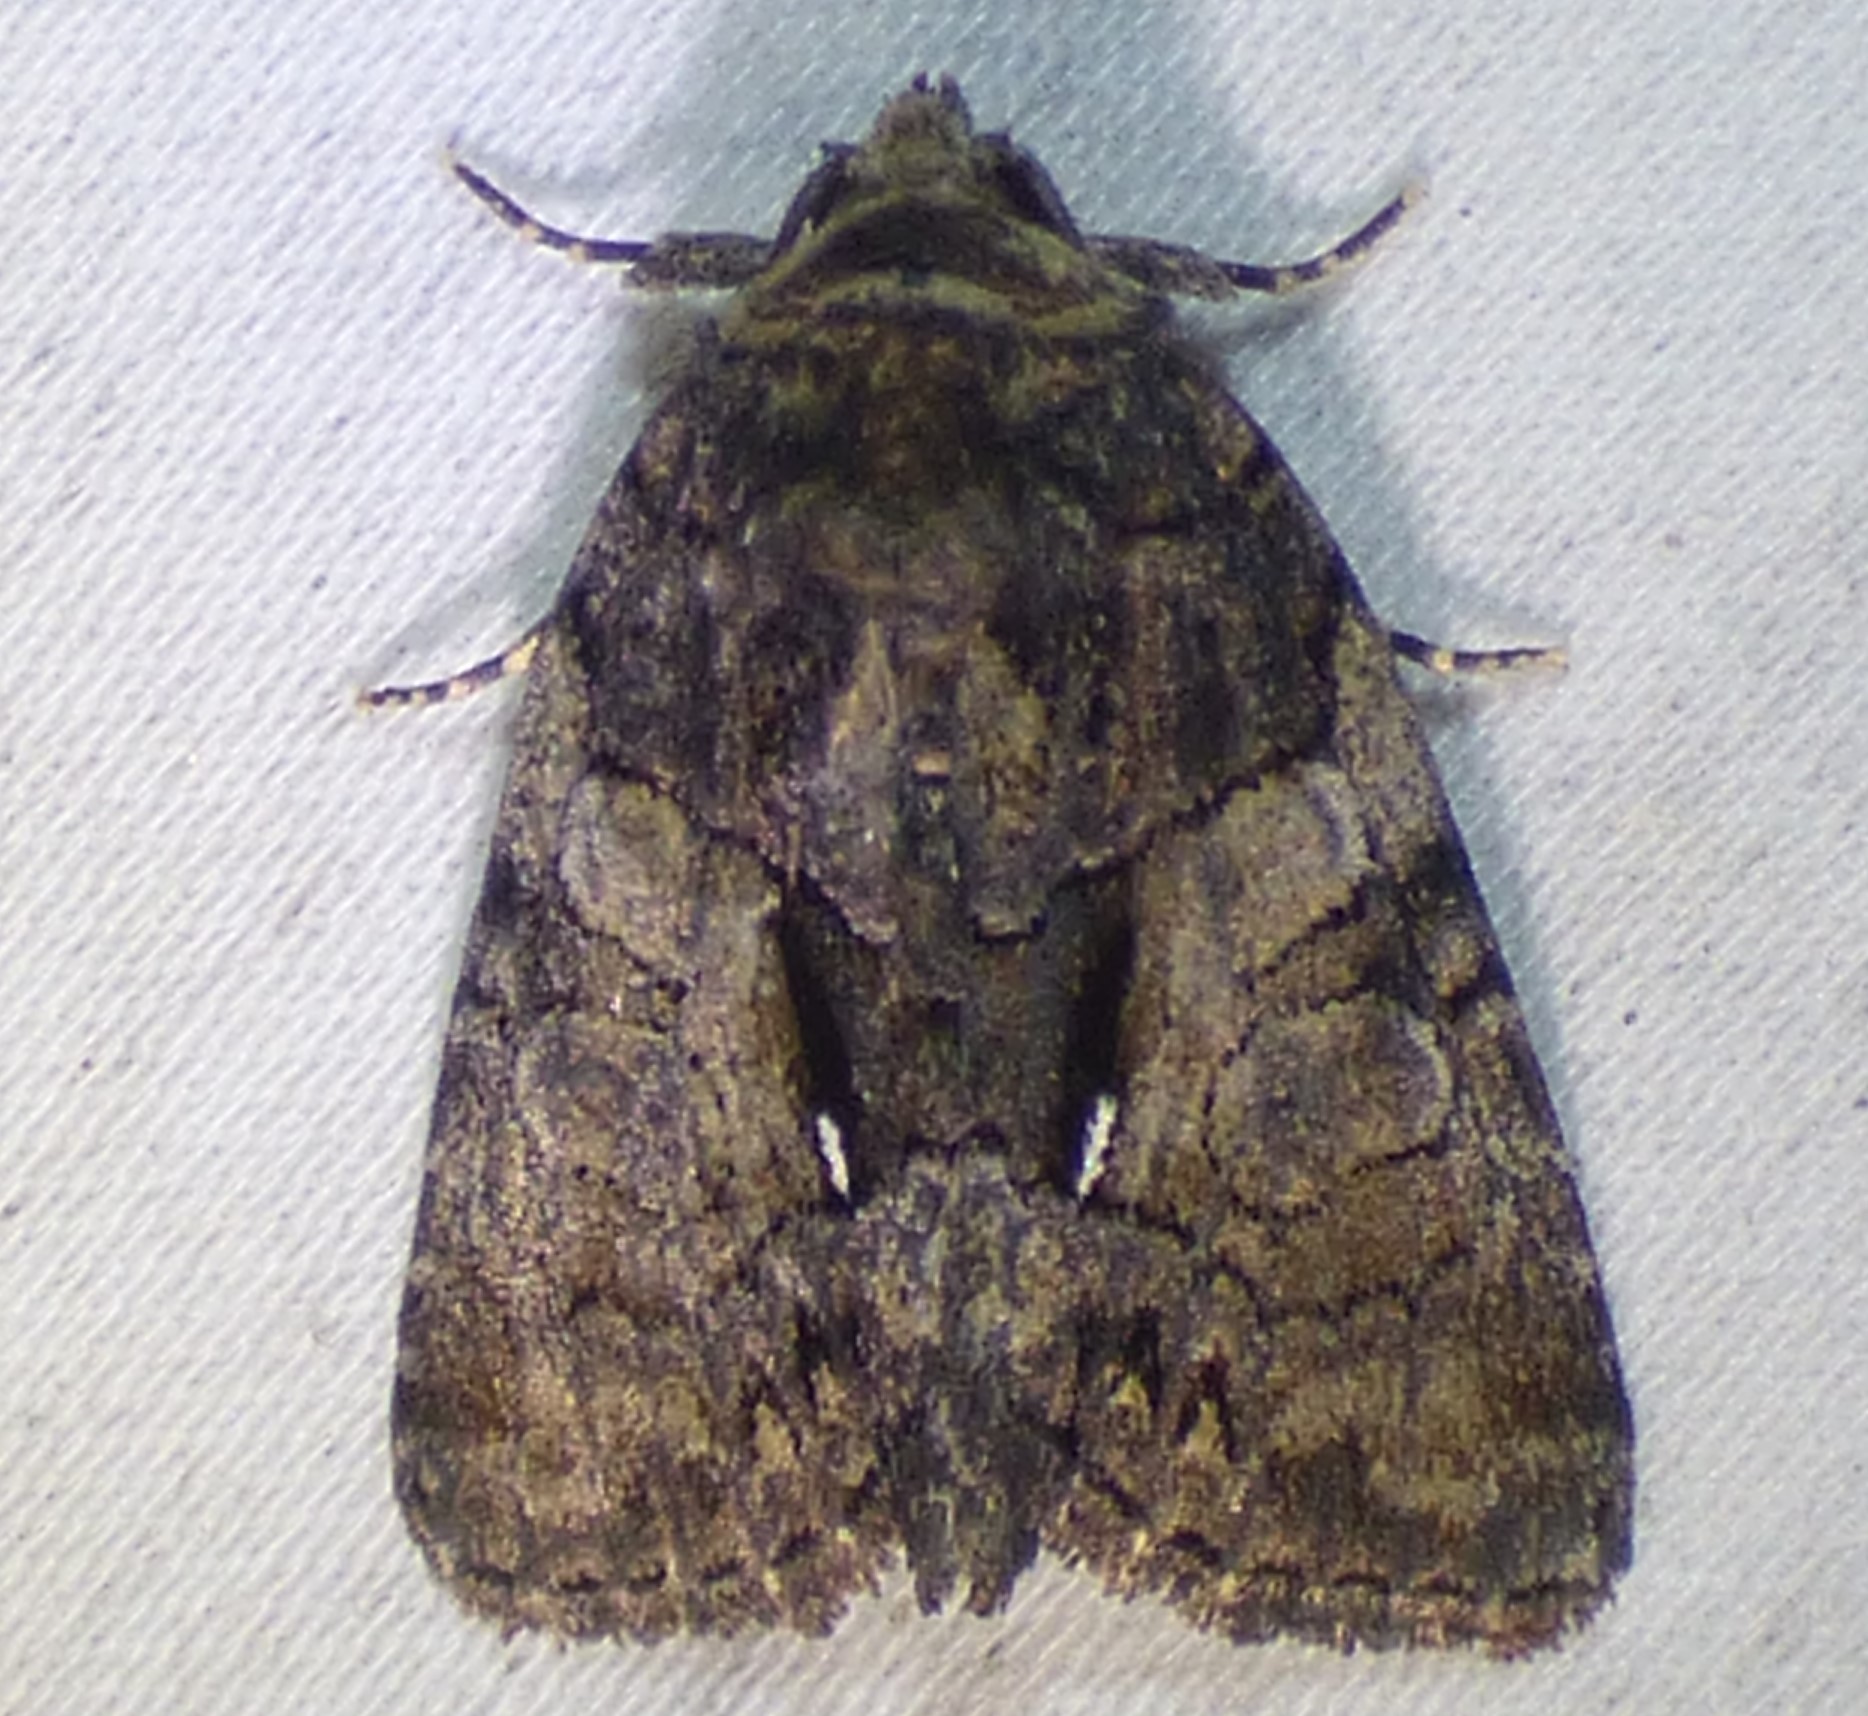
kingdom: Animalia
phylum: Arthropoda
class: Insecta
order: Lepidoptera
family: Noctuidae
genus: Chytonix
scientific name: Chytonix palliatricula
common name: Cloaked marvel
